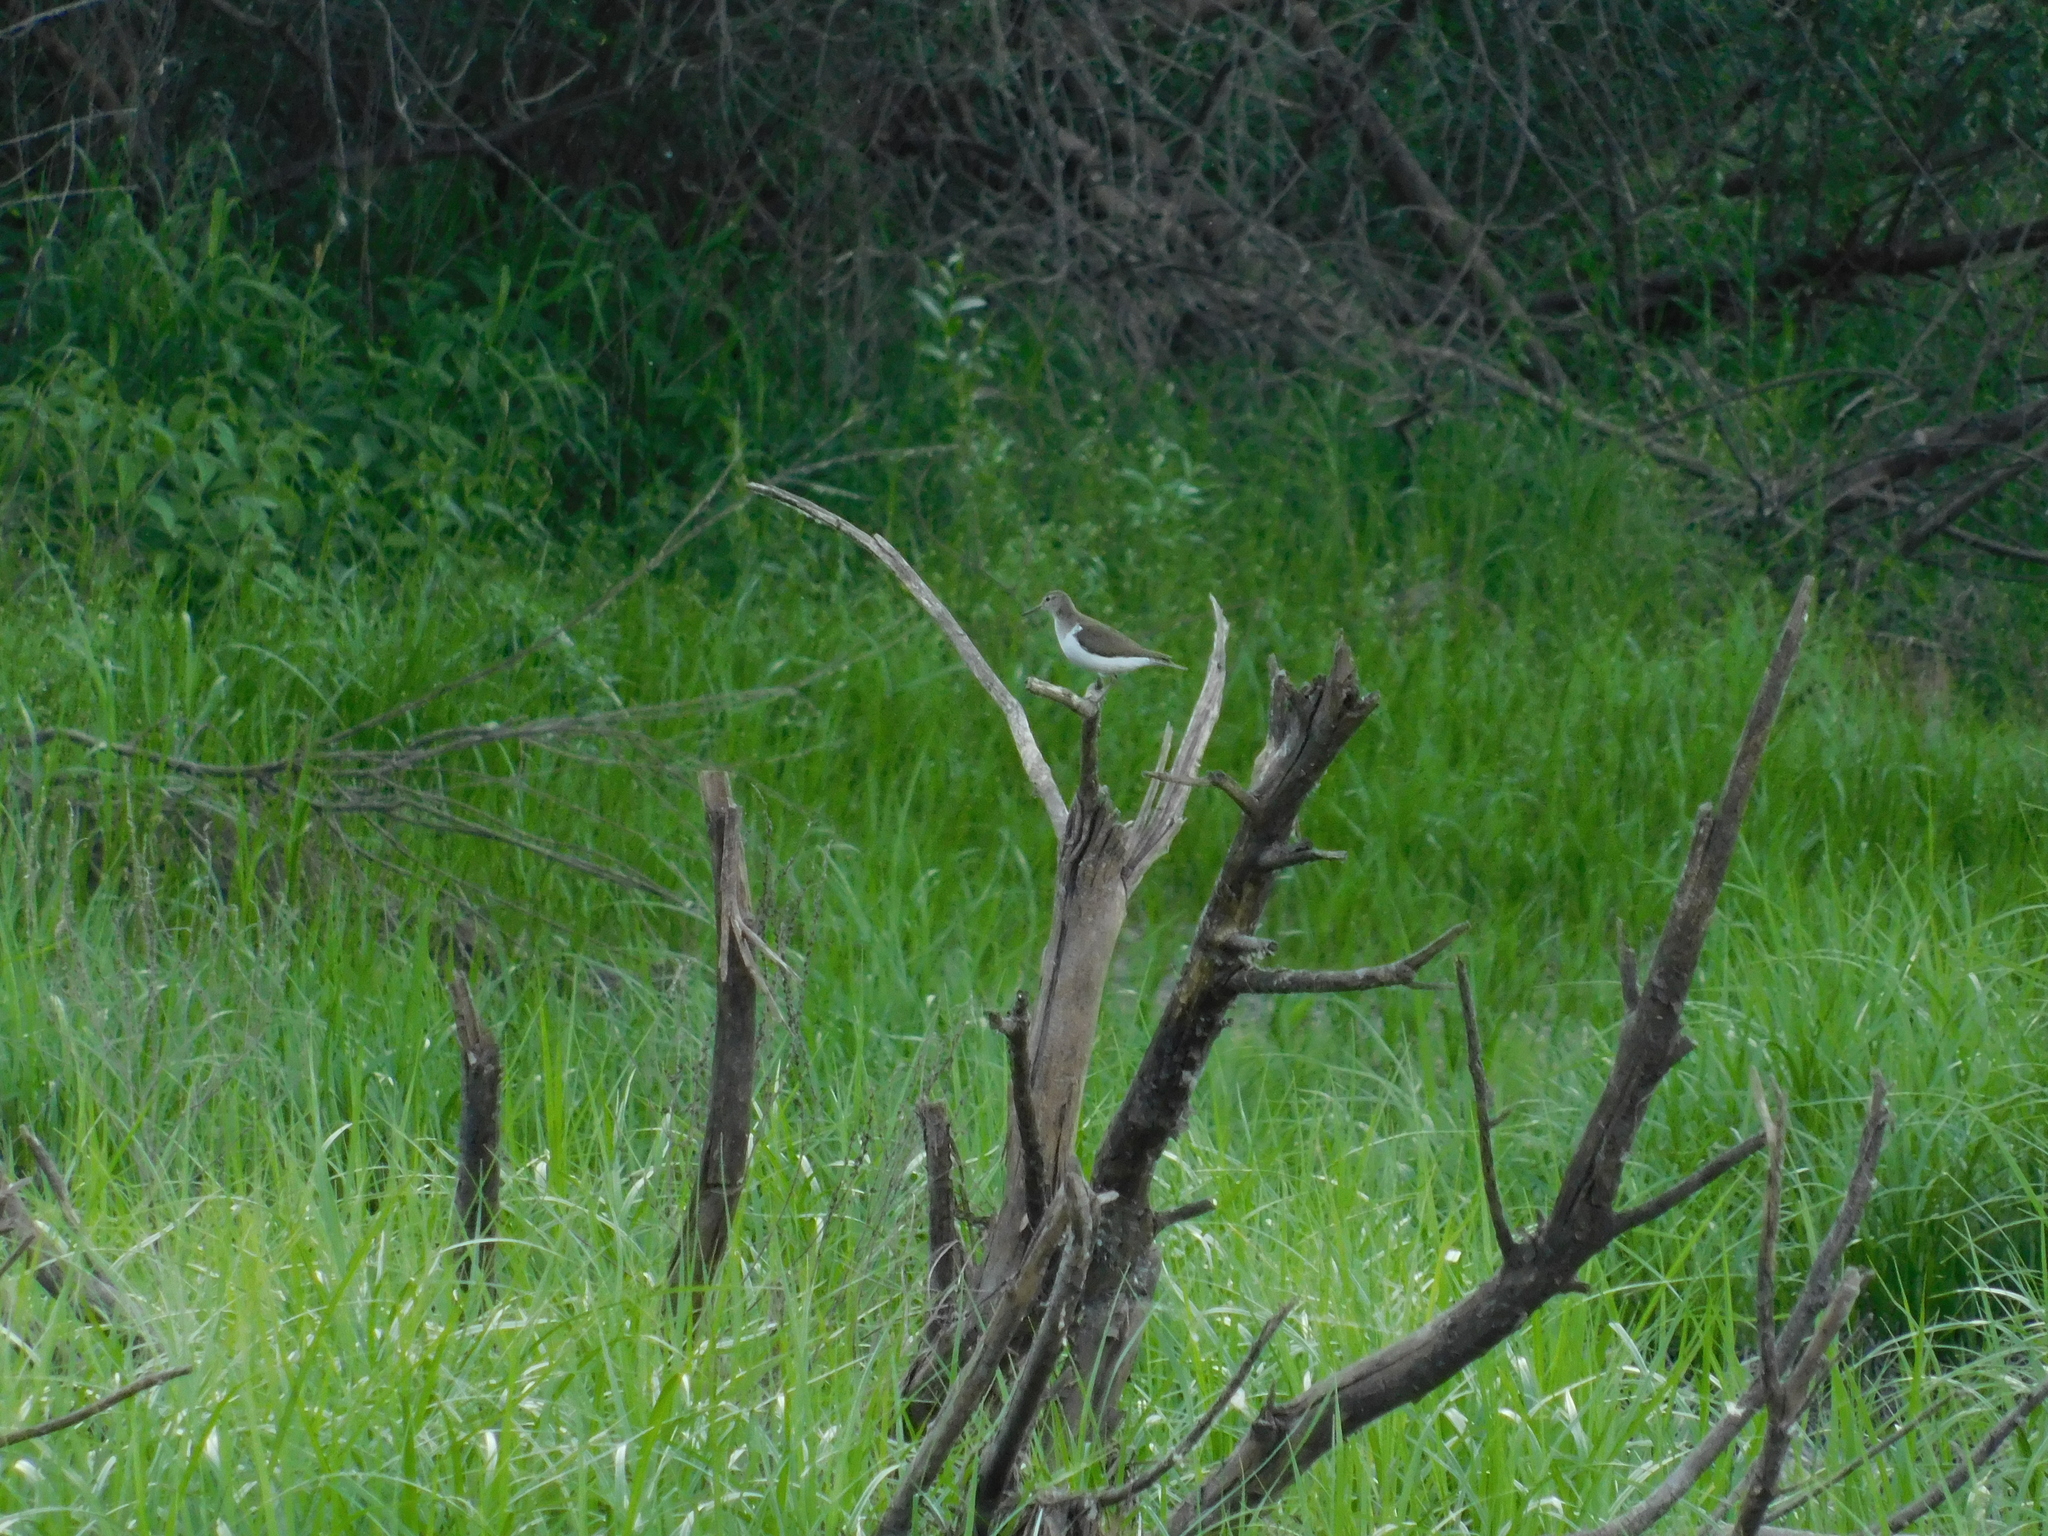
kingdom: Animalia
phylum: Chordata
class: Aves
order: Charadriiformes
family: Scolopacidae
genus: Actitis
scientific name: Actitis hypoleucos
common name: Common sandpiper
